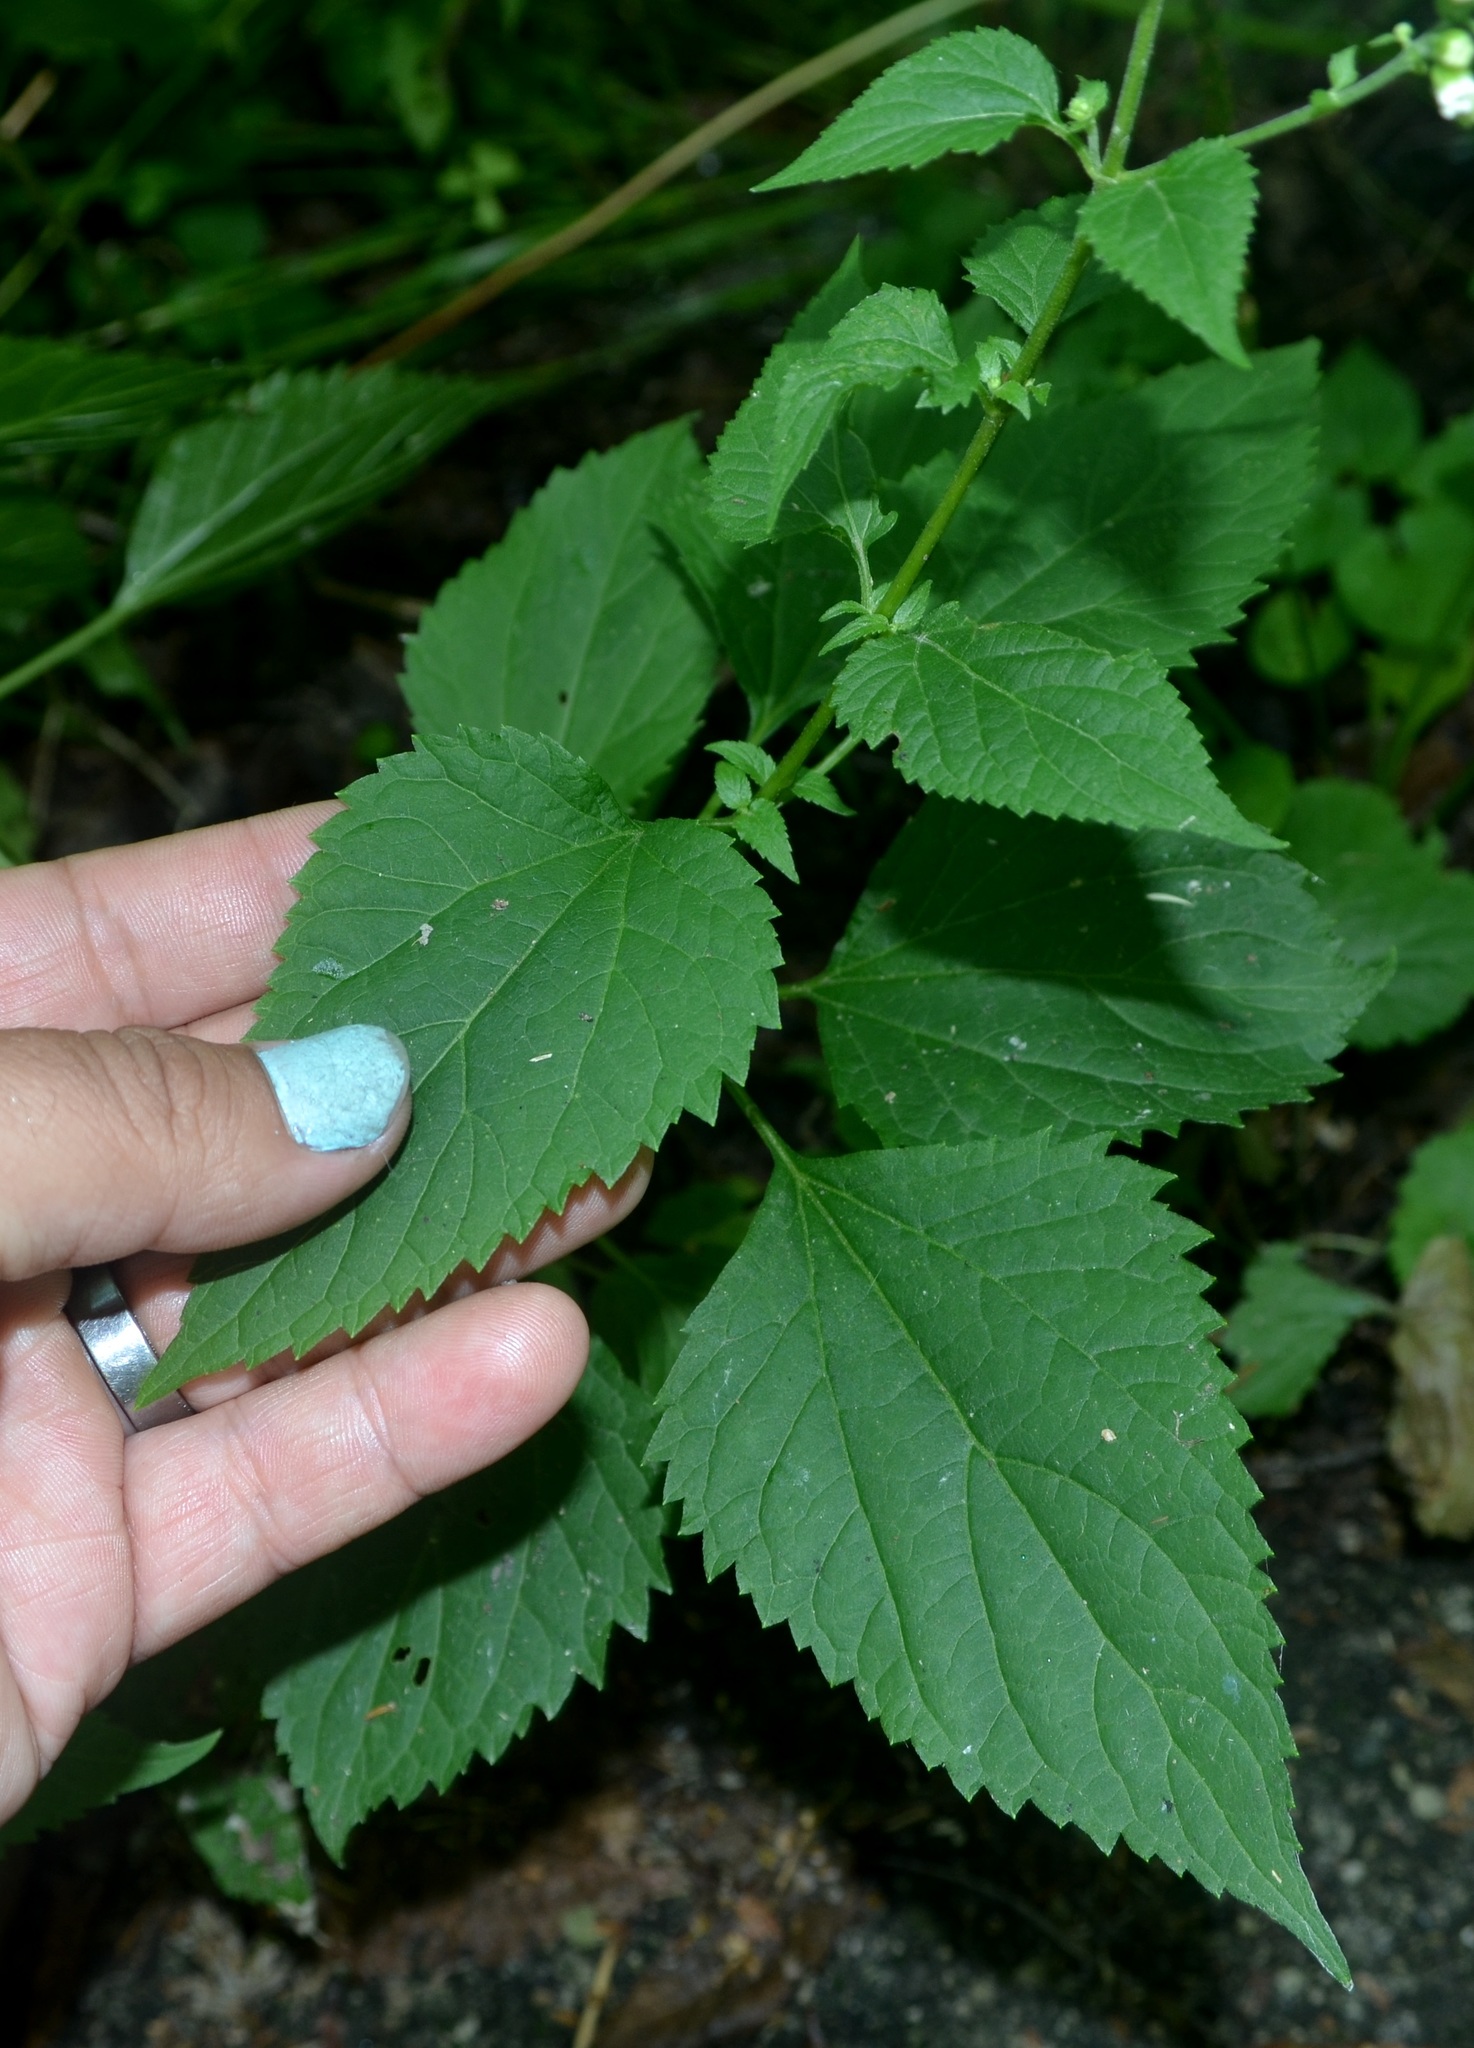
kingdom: Plantae
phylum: Tracheophyta
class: Magnoliopsida
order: Asterales
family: Asteraceae
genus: Ageratina
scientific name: Ageratina altissima
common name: White snakeroot
